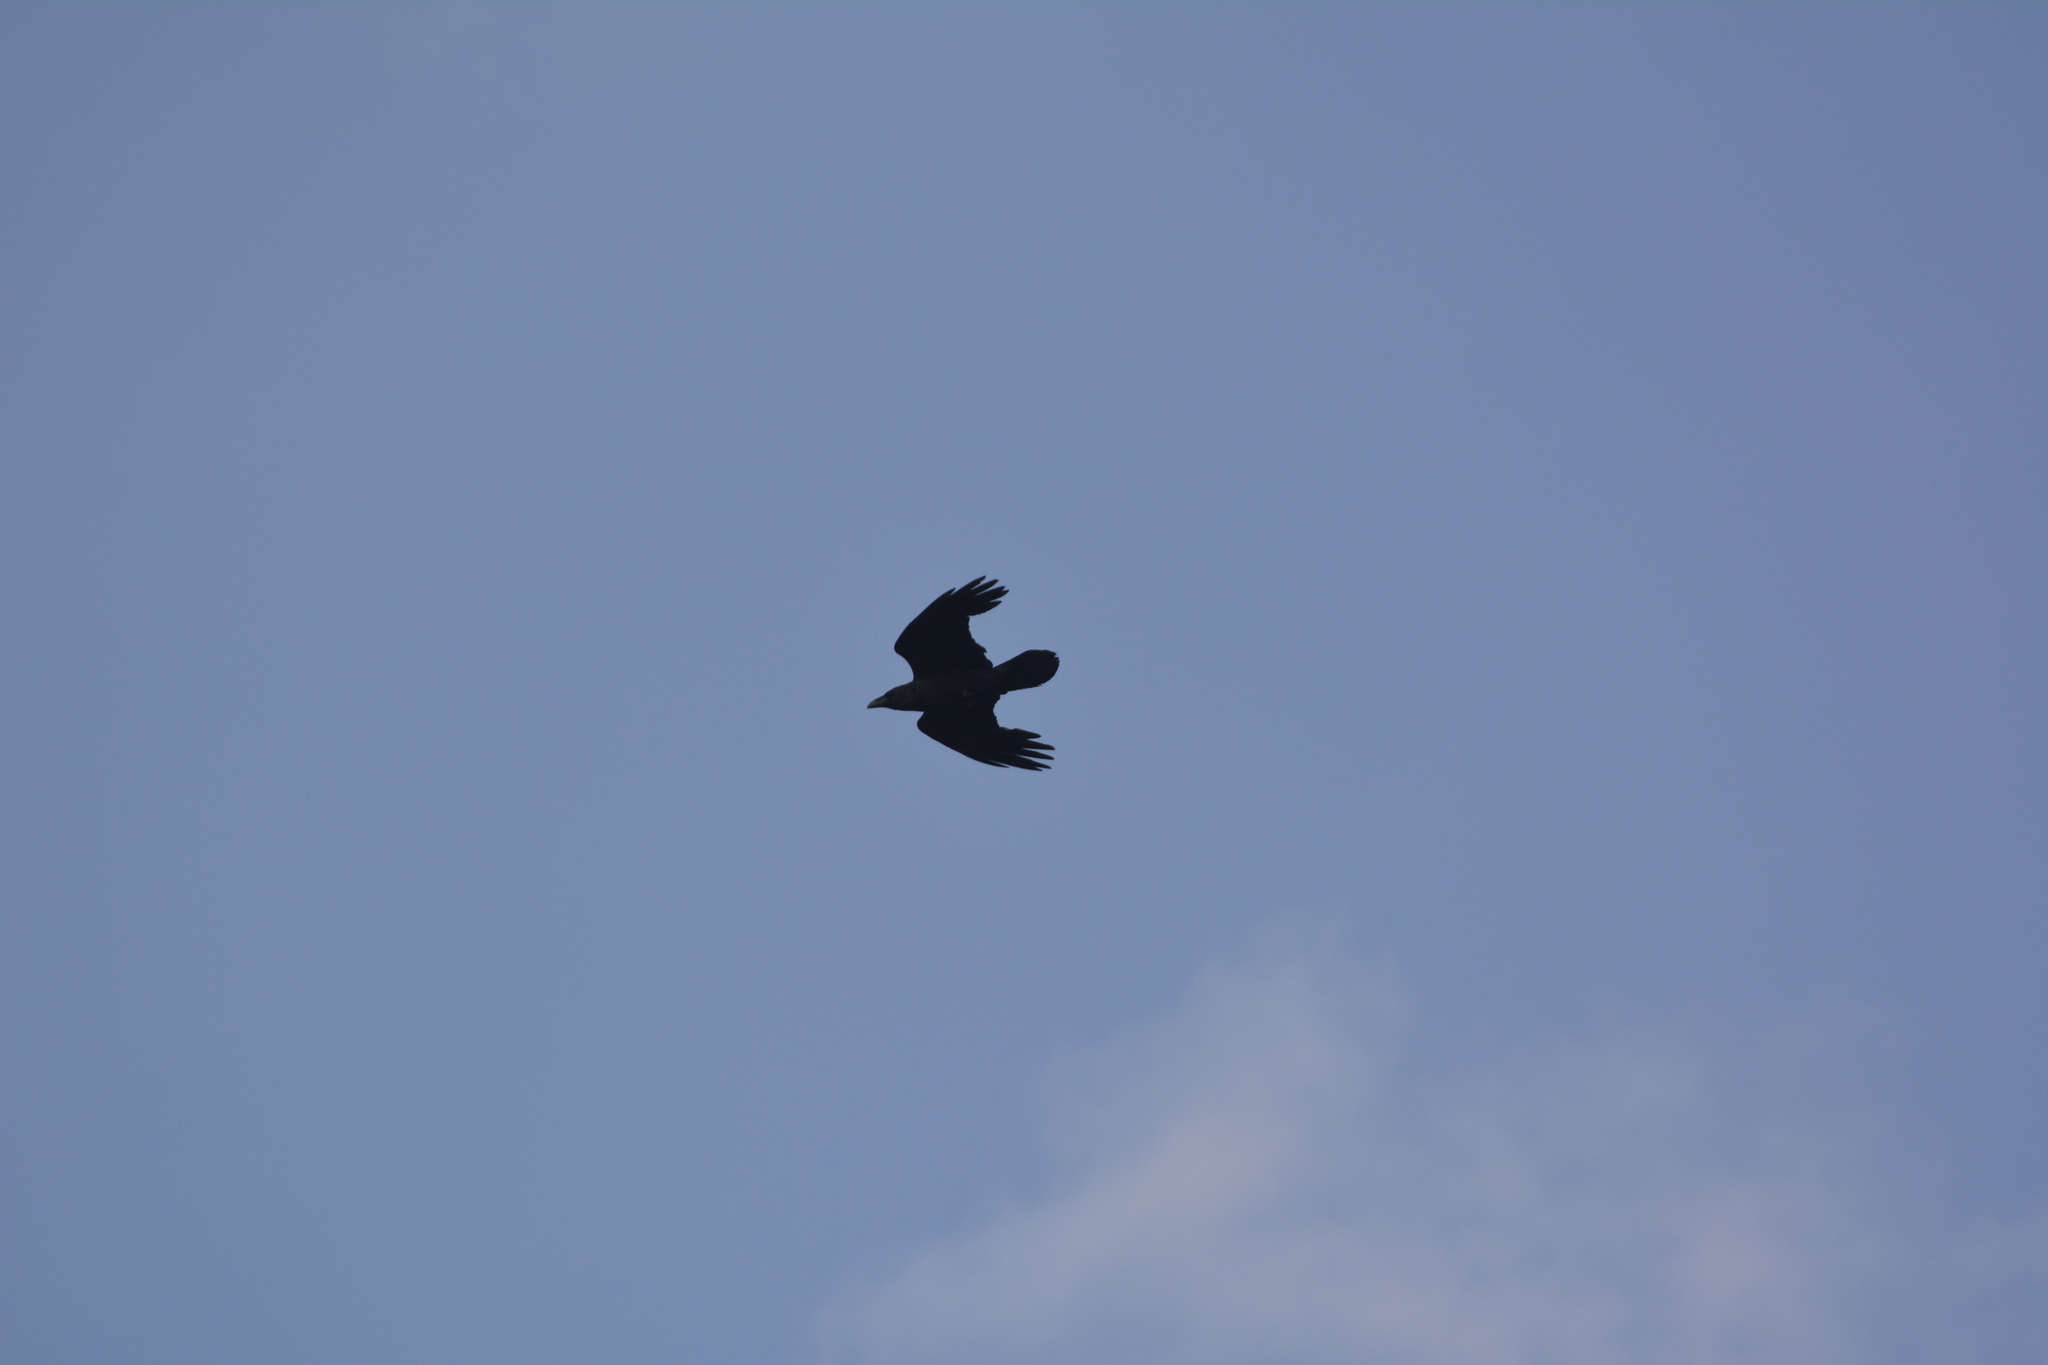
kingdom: Animalia
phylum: Chordata
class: Aves
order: Passeriformes
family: Corvidae
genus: Corvus
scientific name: Corvus corax
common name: Common raven
